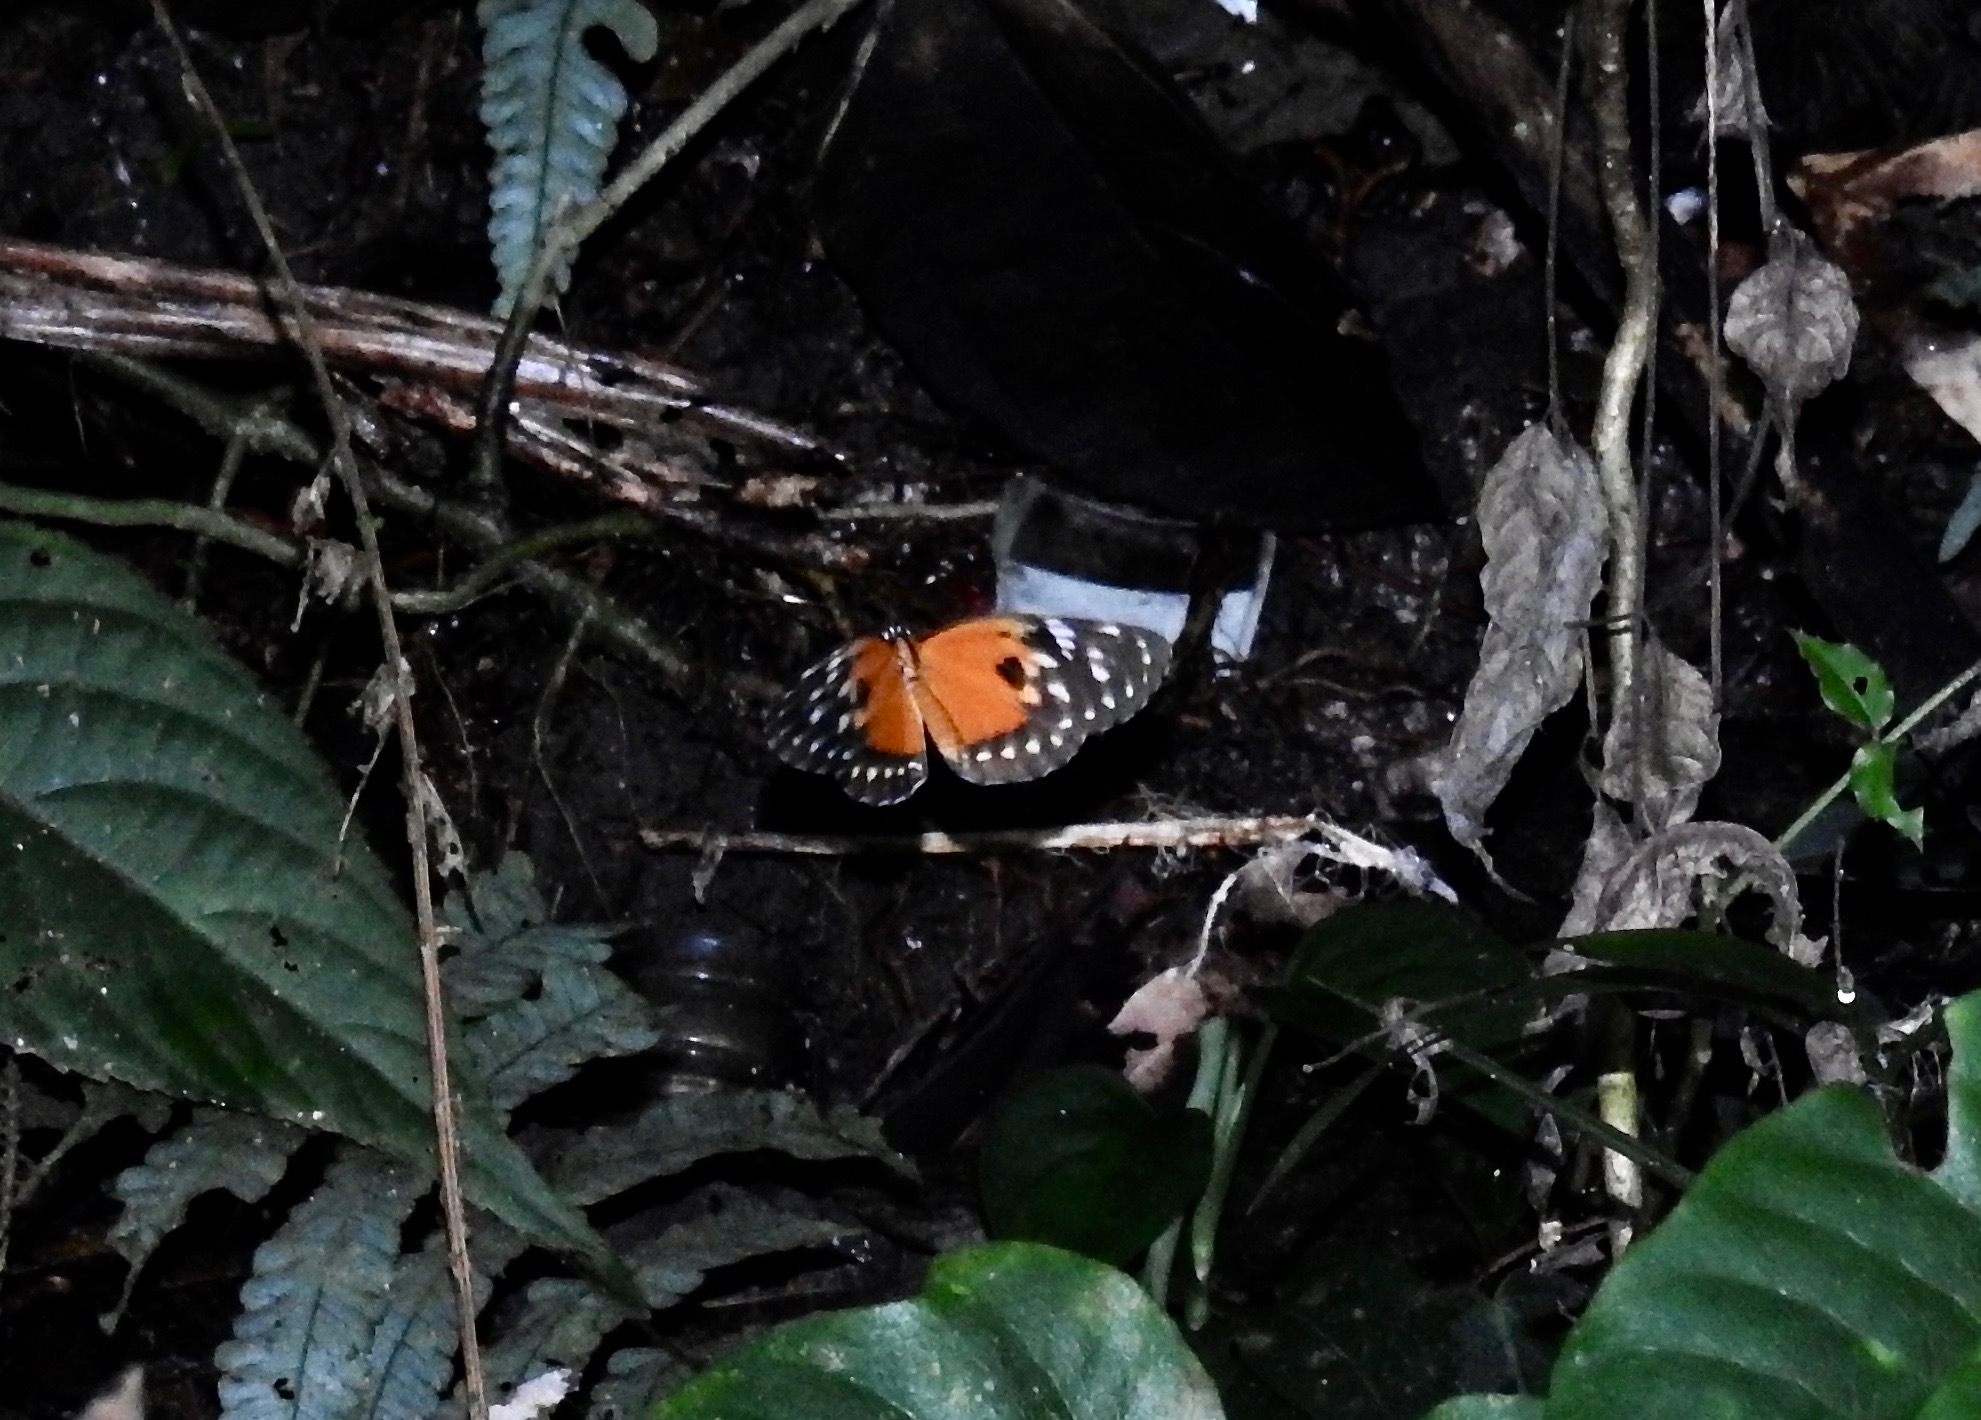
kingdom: Animalia
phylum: Arthropoda
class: Insecta
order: Lepidoptera
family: Nymphalidae
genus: Eresia
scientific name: Eresia emerantia
